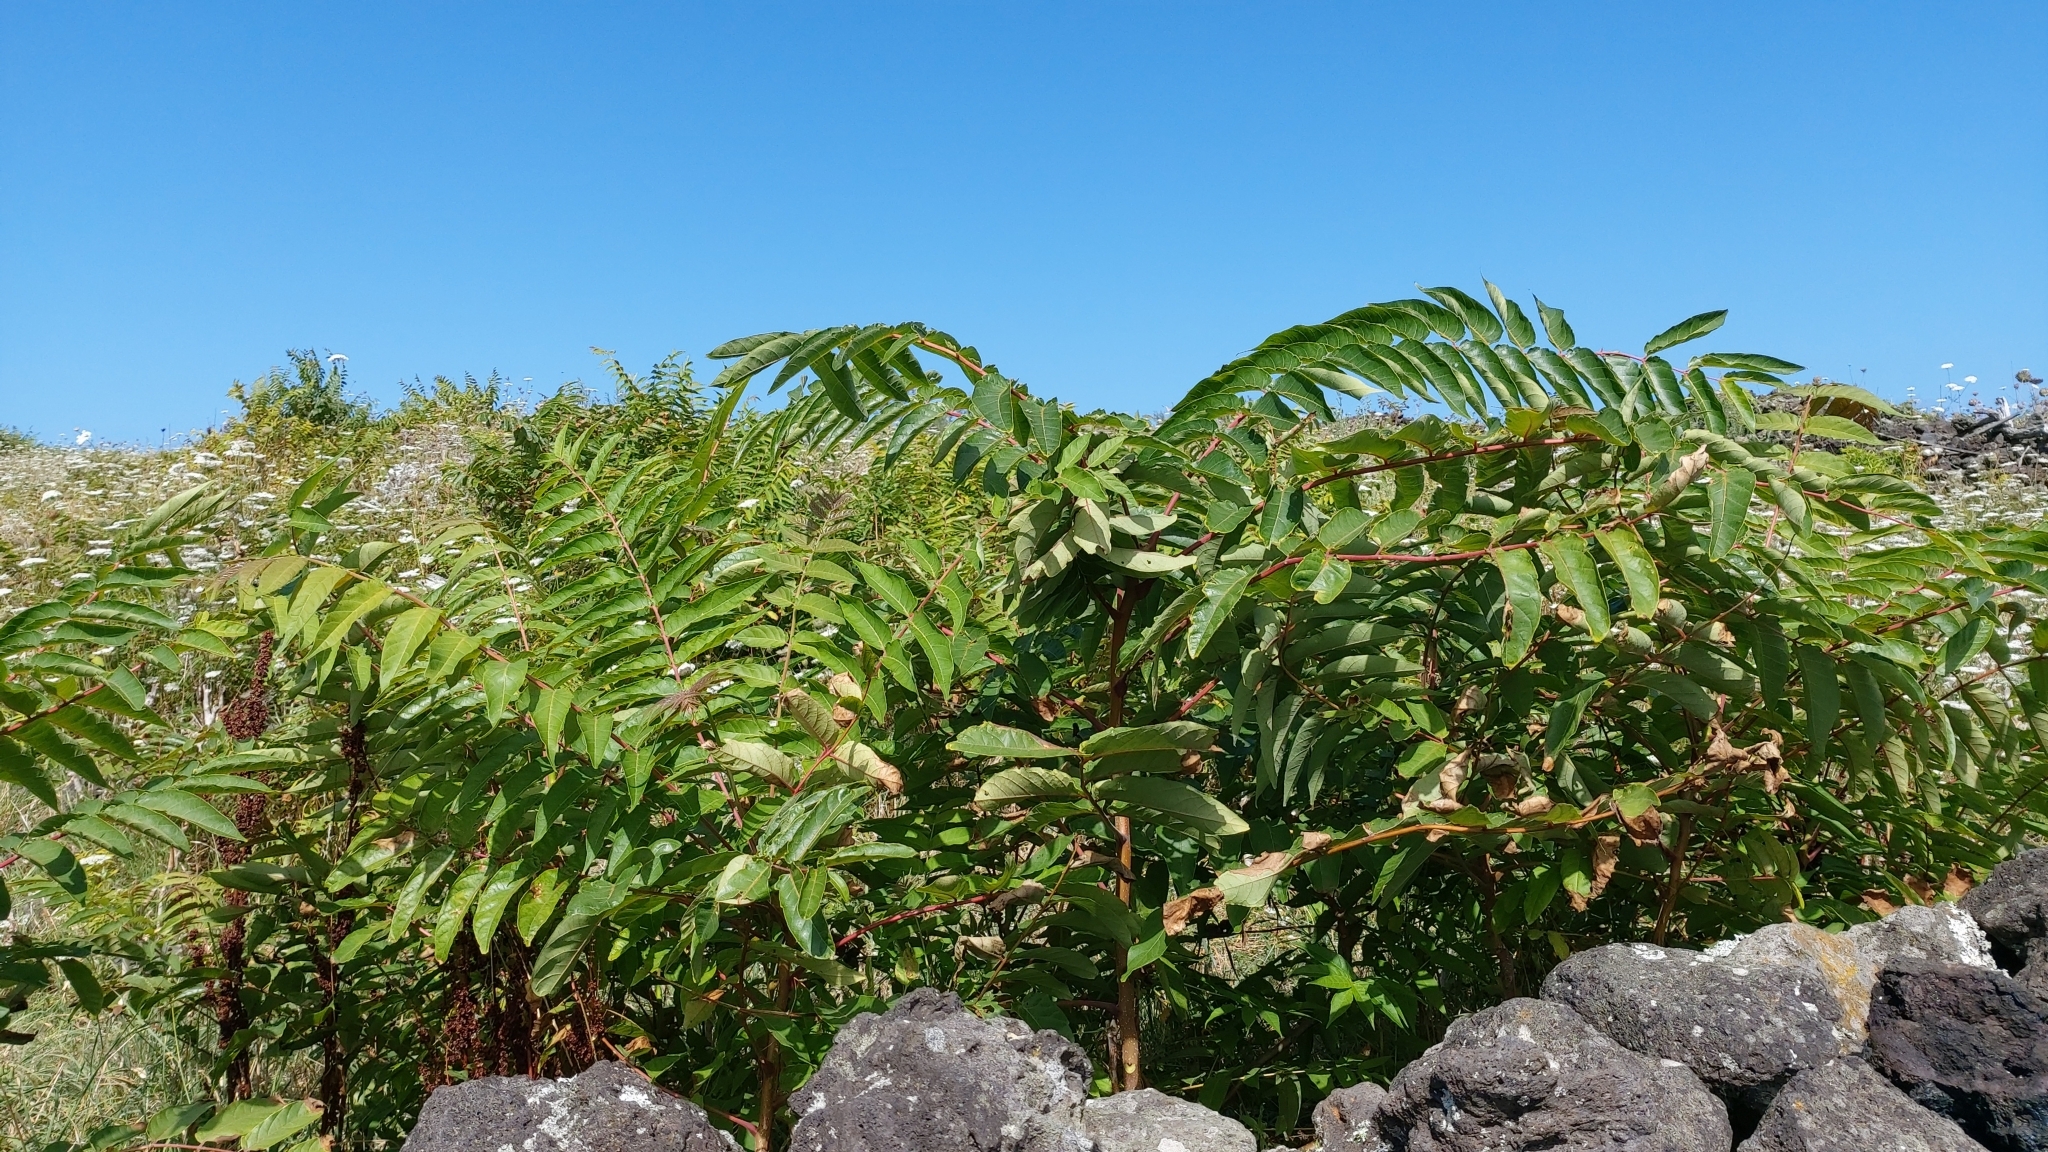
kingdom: Plantae
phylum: Tracheophyta
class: Magnoliopsida
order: Sapindales
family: Simaroubaceae
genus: Ailanthus
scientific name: Ailanthus altissima
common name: Tree-of-heaven
